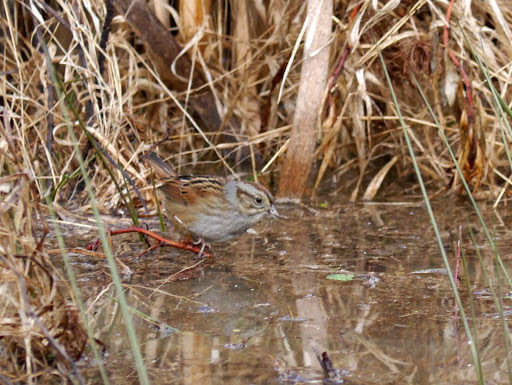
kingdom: Animalia
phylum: Chordata
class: Aves
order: Passeriformes
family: Passerellidae
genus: Melospiza
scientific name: Melospiza georgiana
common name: Swamp sparrow
